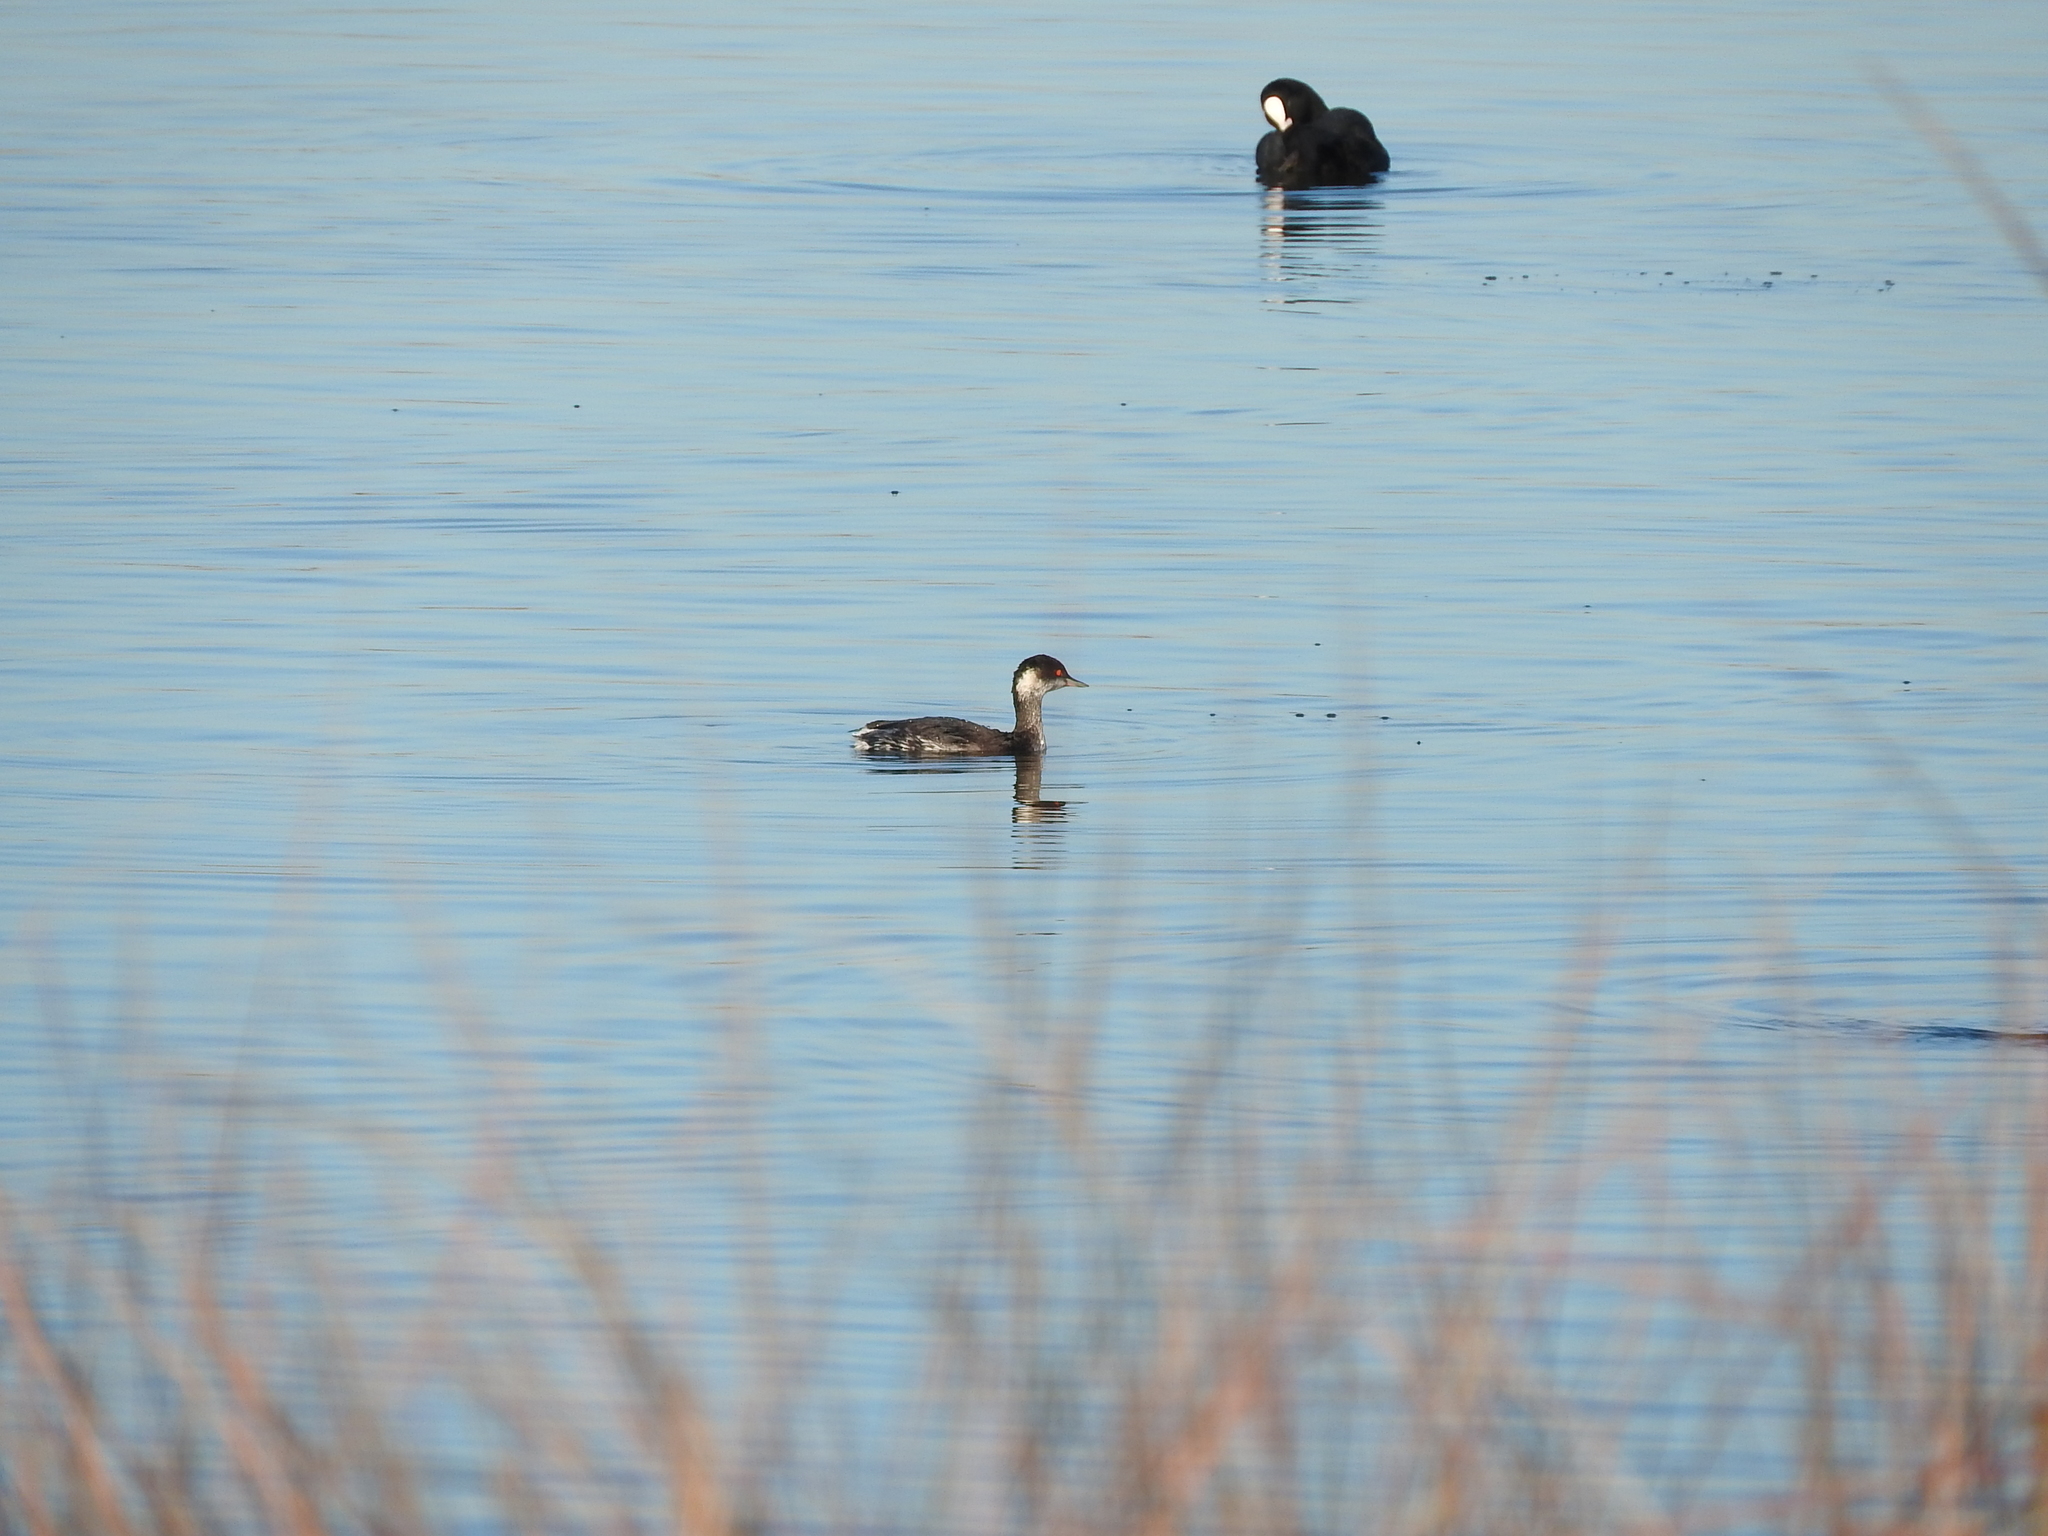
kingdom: Animalia
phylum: Chordata
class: Aves
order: Podicipediformes
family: Podicipedidae
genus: Podiceps
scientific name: Podiceps nigricollis
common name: Black-necked grebe
